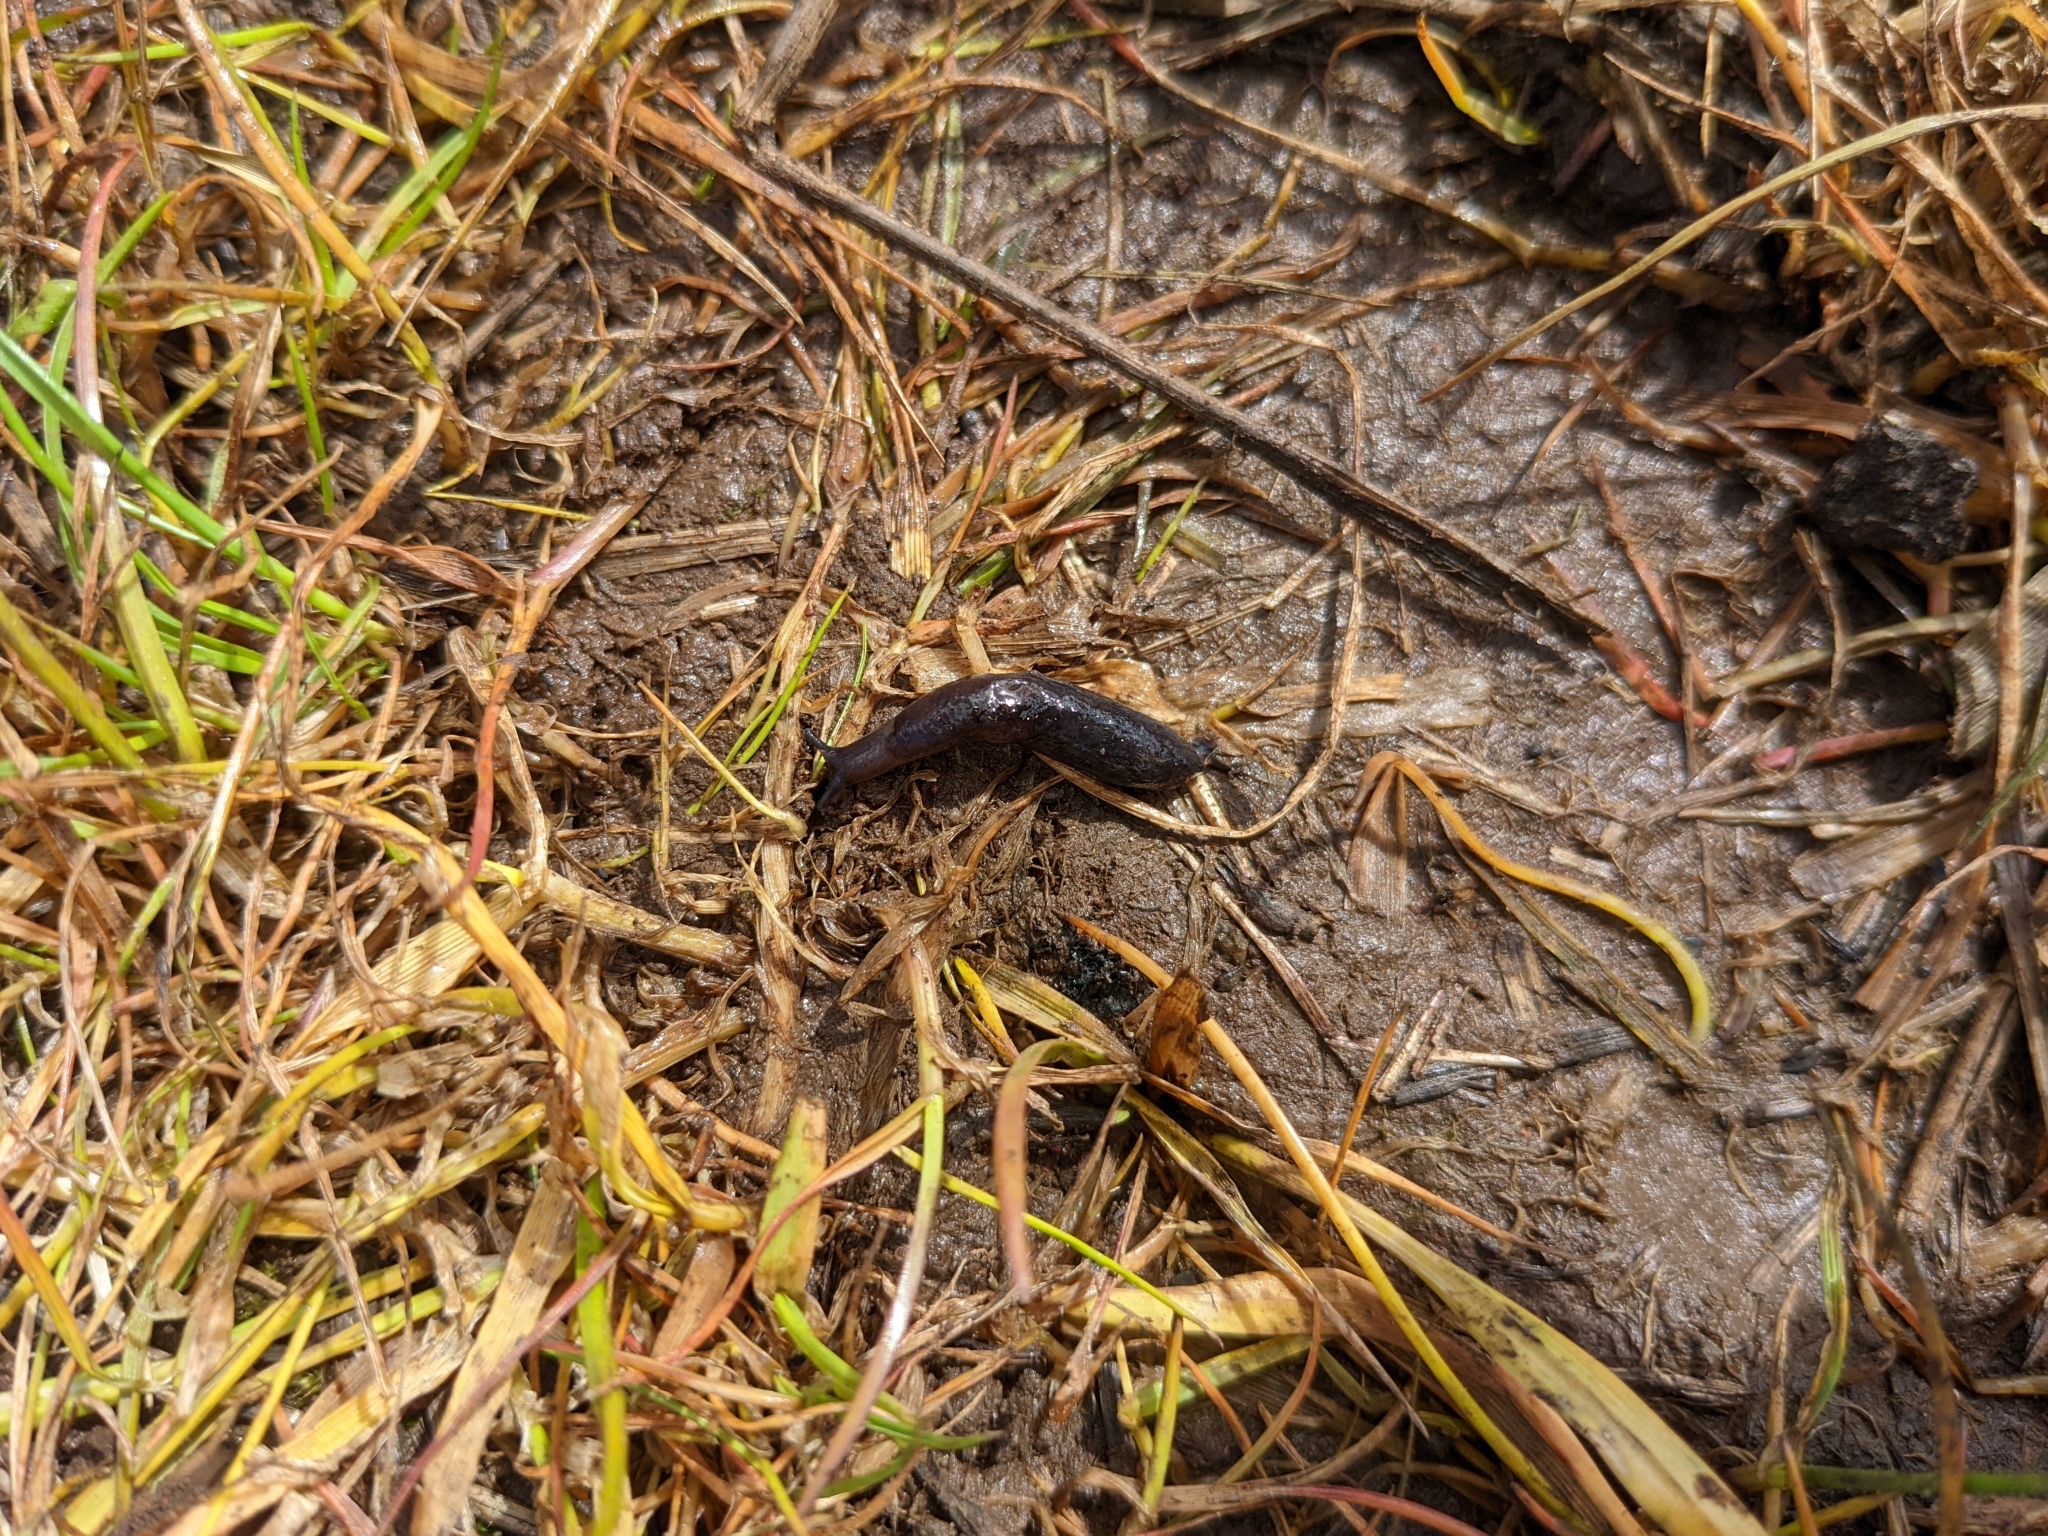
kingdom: Animalia
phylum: Mollusca
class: Gastropoda
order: Stylommatophora
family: Agriolimacidae
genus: Deroceras
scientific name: Deroceras invadens
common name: Caruana's slug
